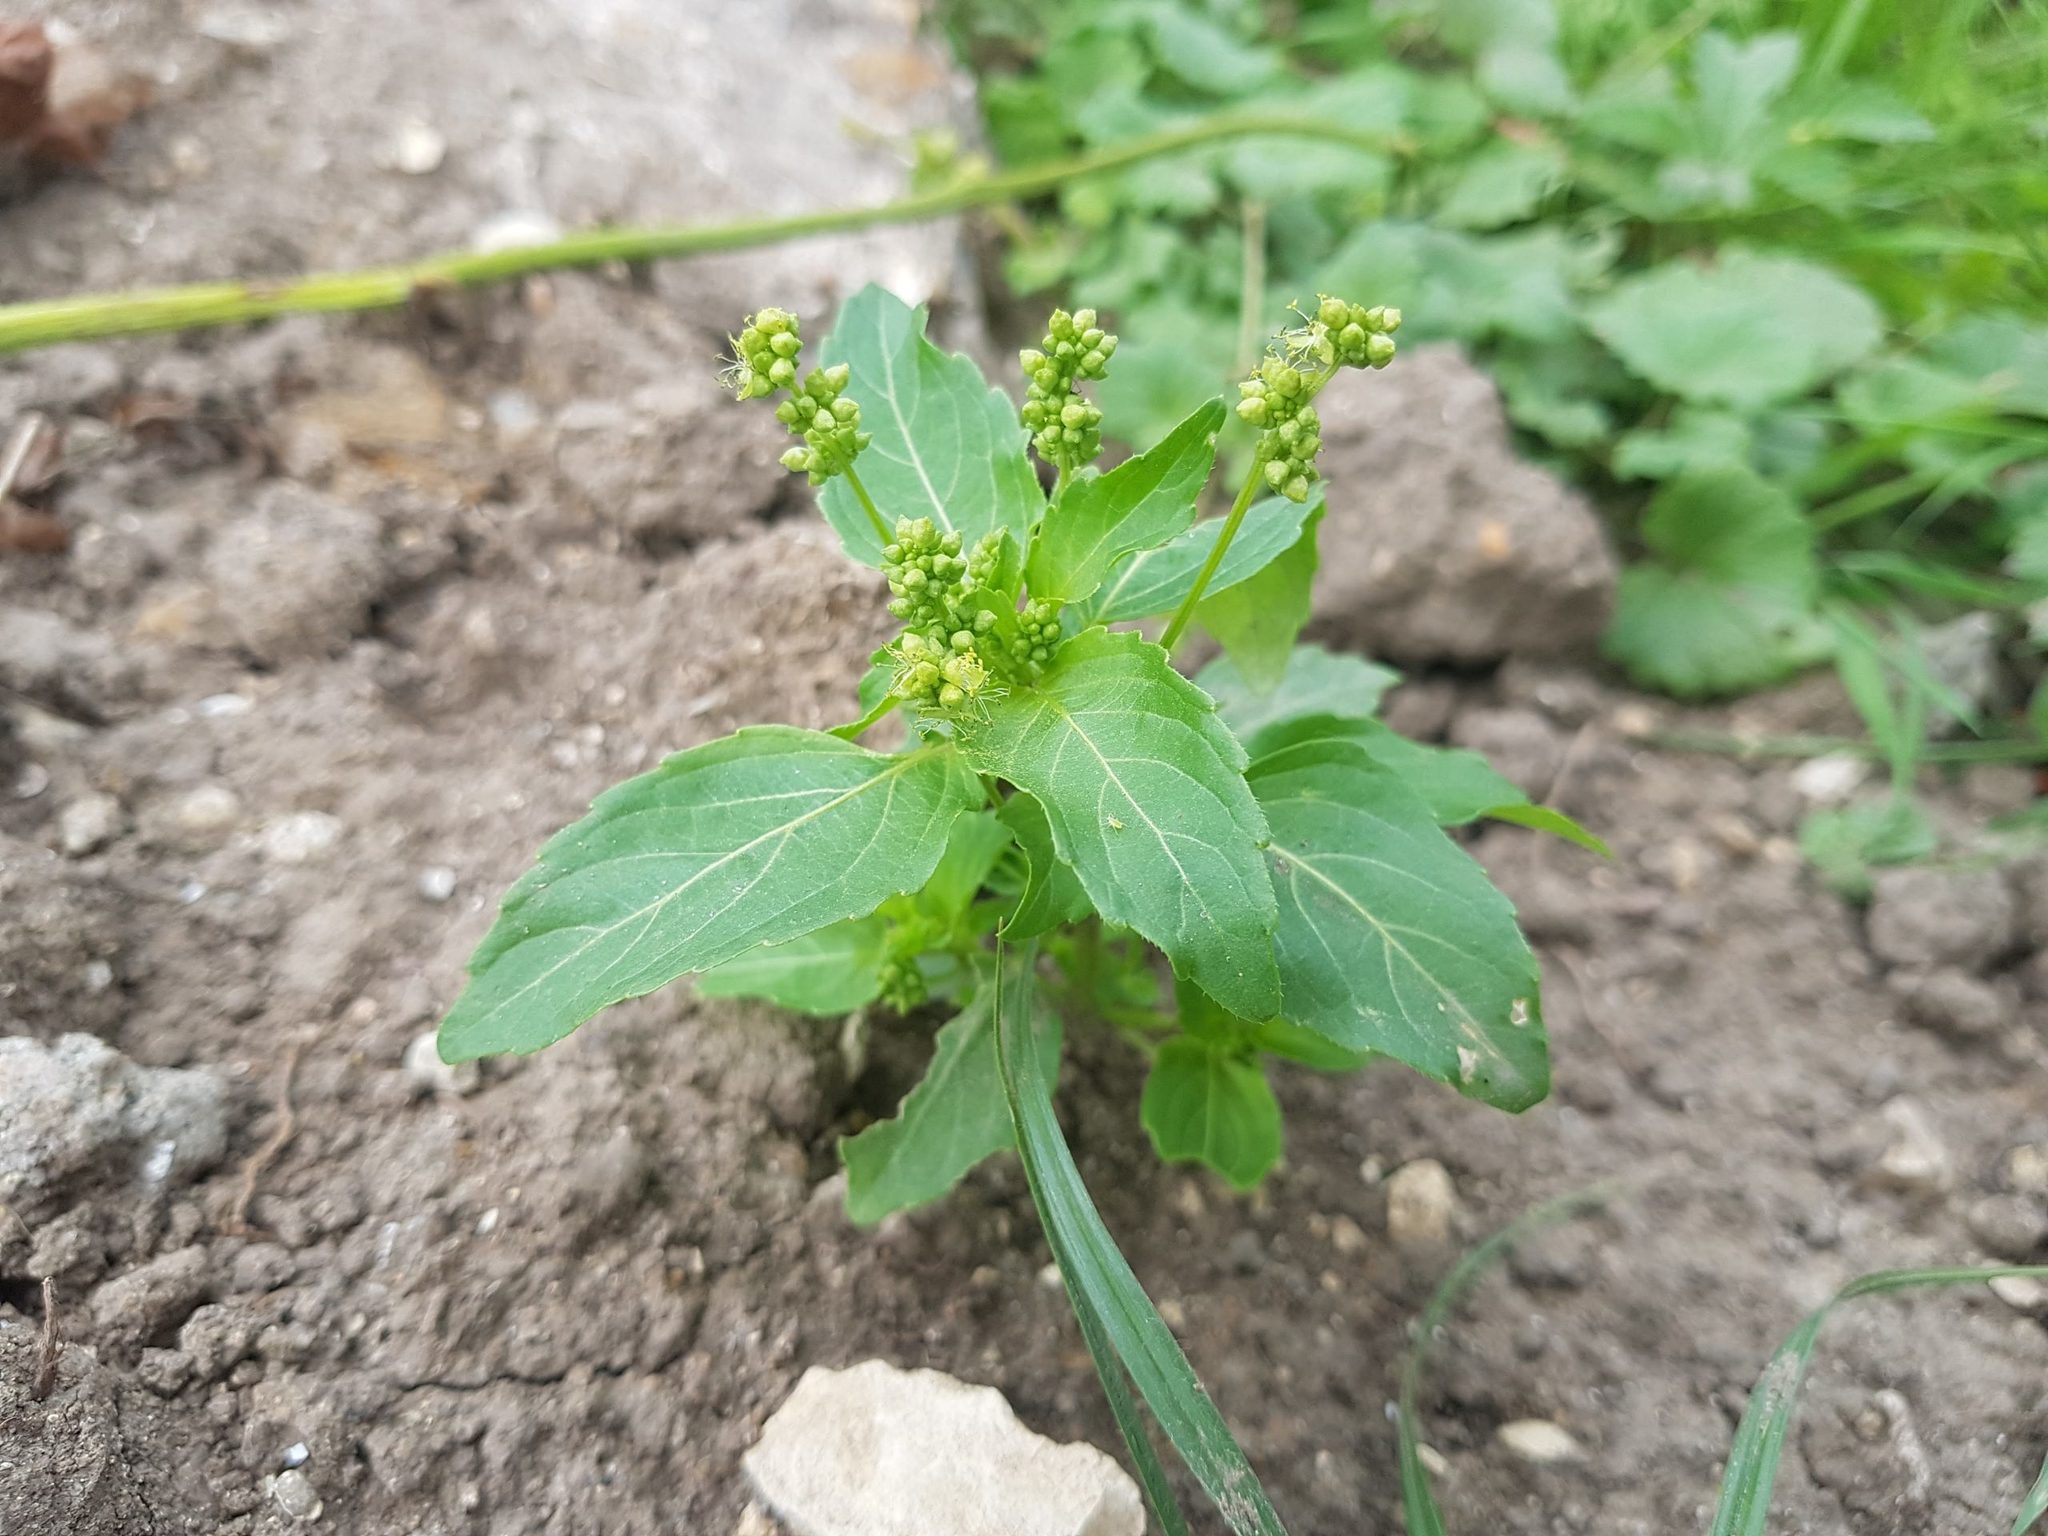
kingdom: Plantae
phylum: Tracheophyta
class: Magnoliopsida
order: Malpighiales
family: Euphorbiaceae
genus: Mercurialis
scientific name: Mercurialis annua
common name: Annual mercury
